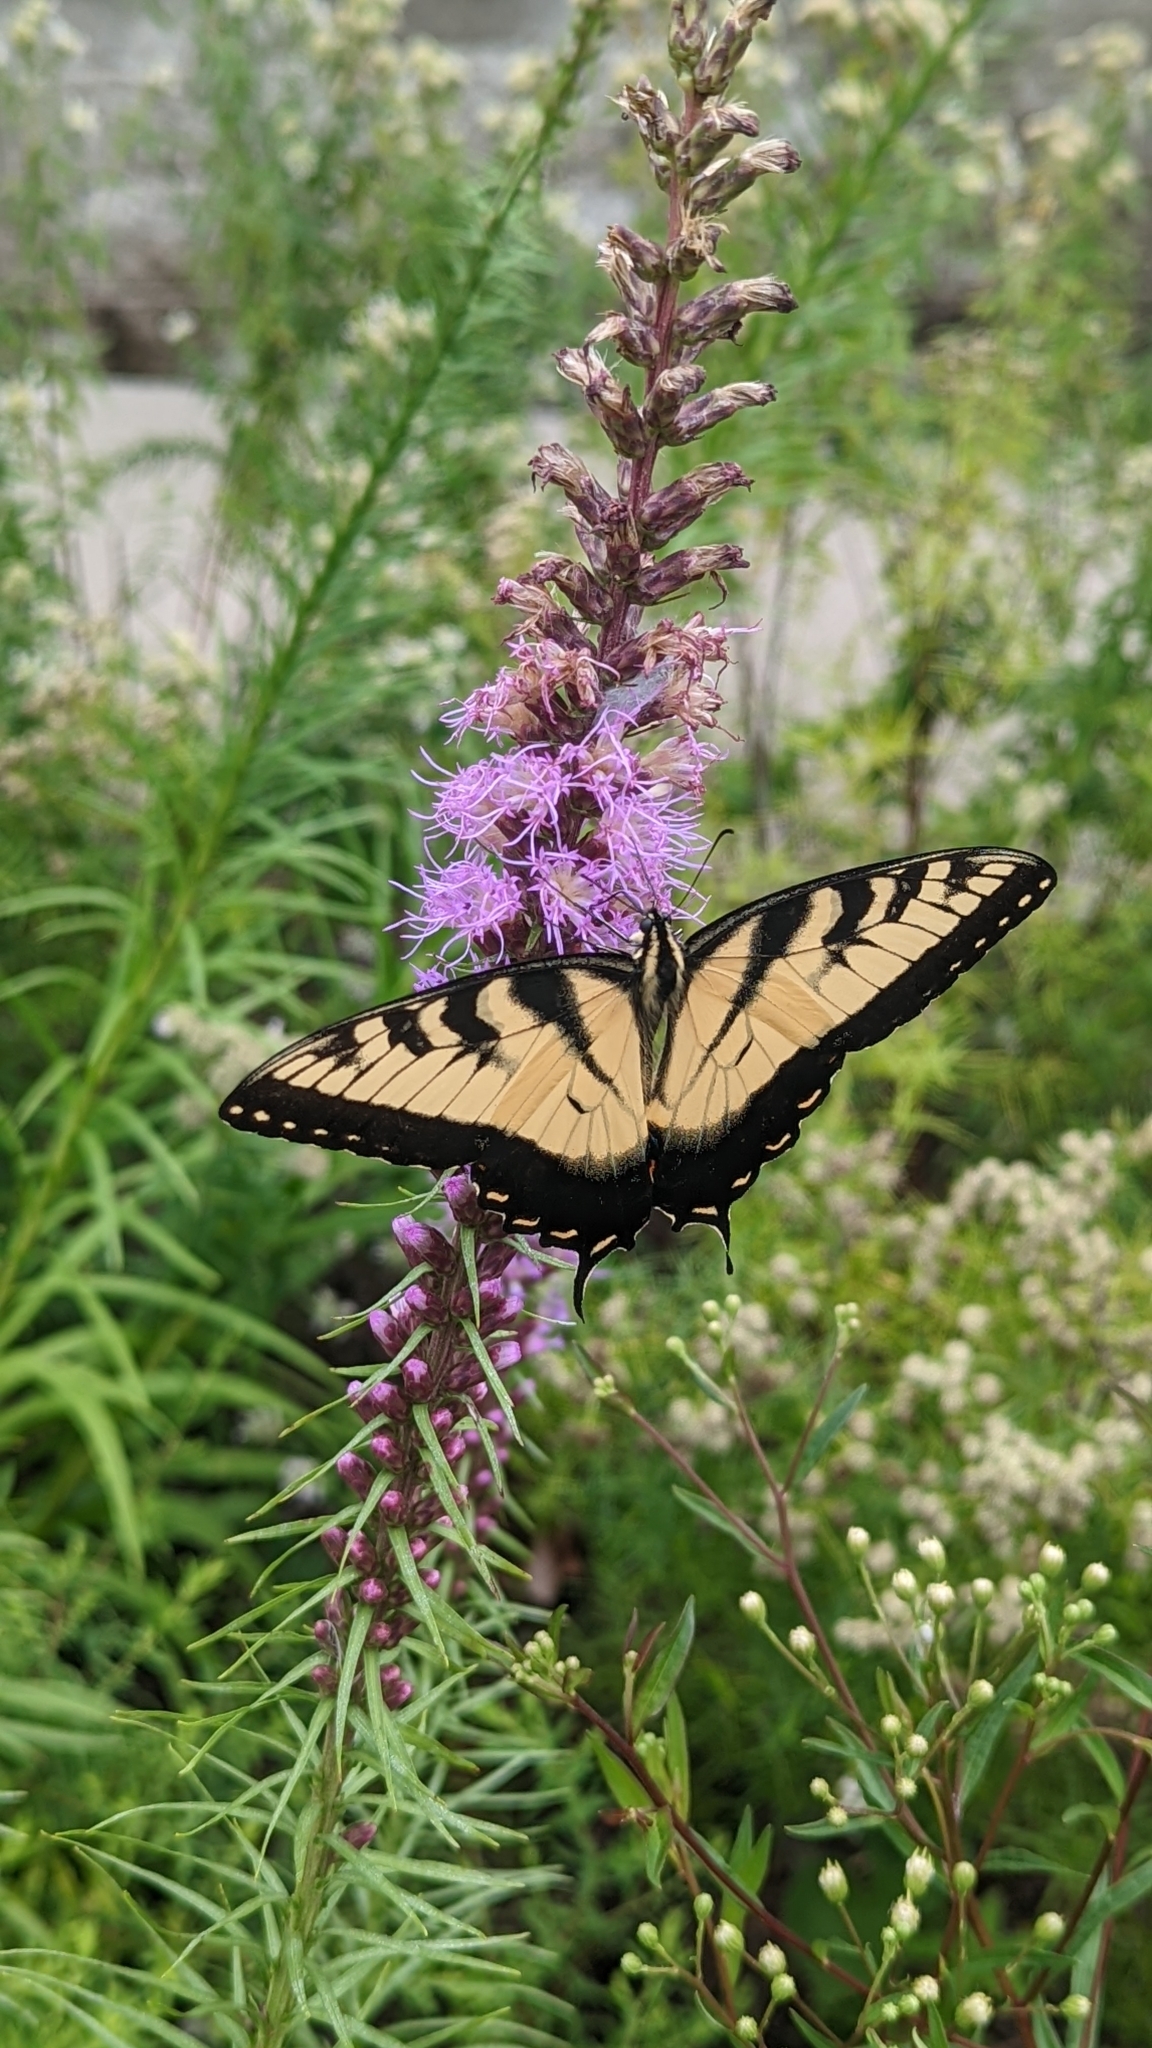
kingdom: Animalia
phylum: Arthropoda
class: Insecta
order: Lepidoptera
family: Papilionidae
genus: Papilio
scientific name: Papilio glaucus
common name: Tiger swallowtail
